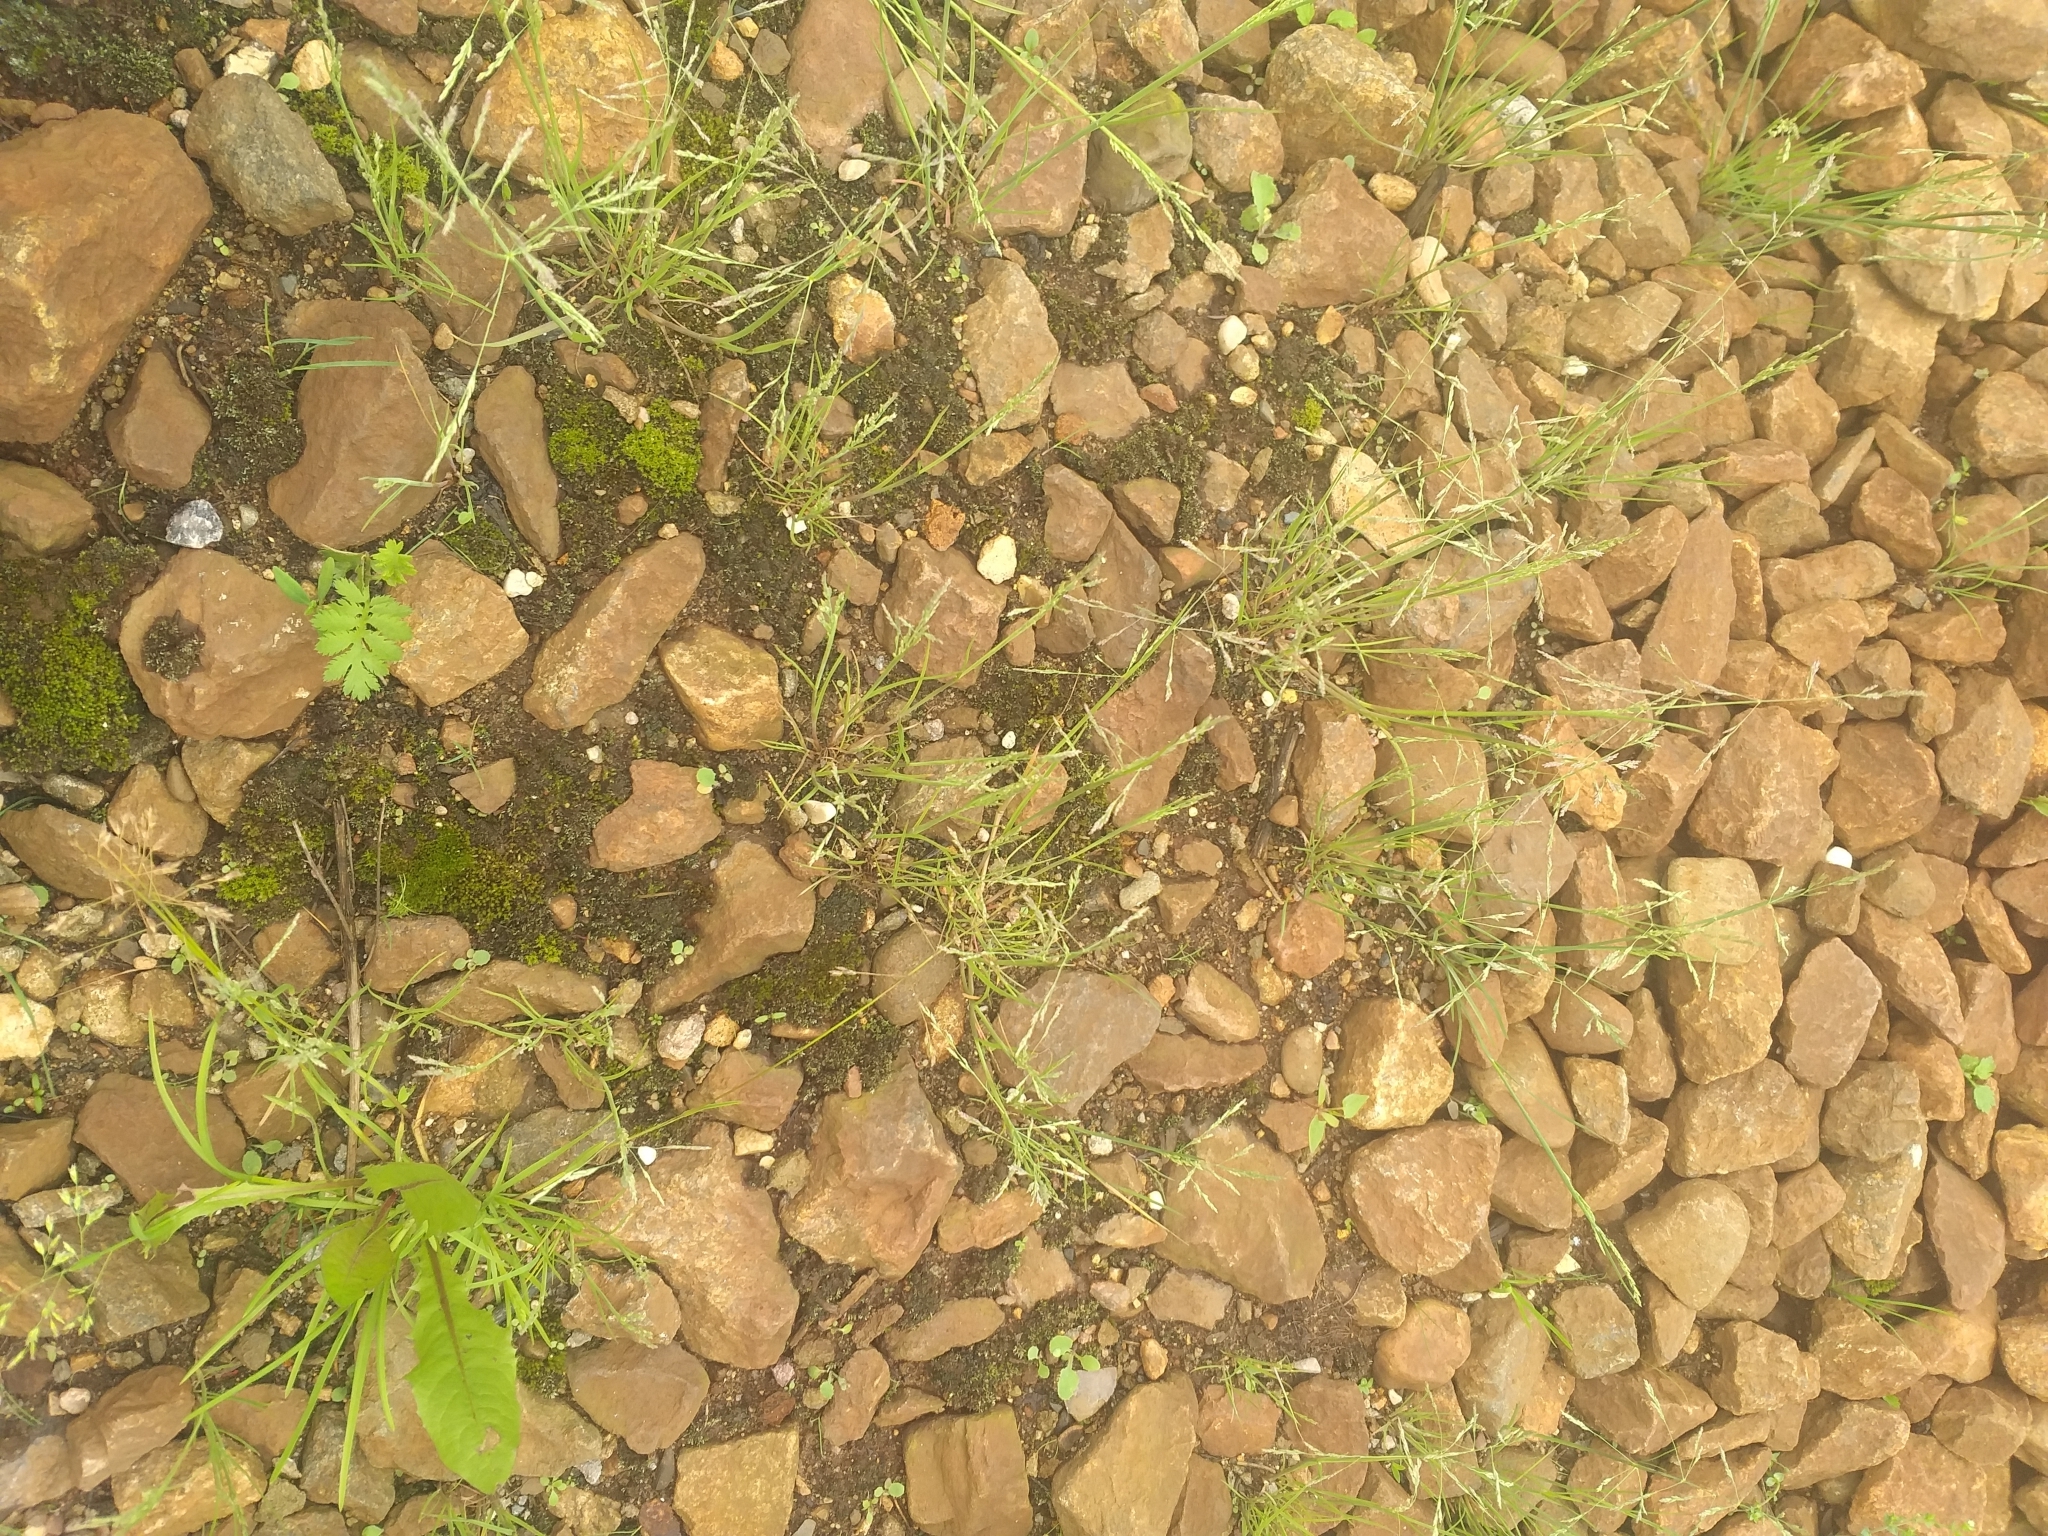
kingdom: Plantae
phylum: Tracheophyta
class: Liliopsida
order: Poales
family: Poaceae
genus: Puccinellia
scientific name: Puccinellia distans
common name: Weeping alkaligrass
